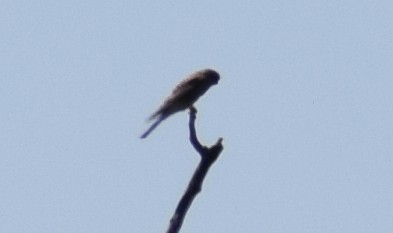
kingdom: Animalia
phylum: Chordata
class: Aves
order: Falconiformes
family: Falconidae
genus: Falco
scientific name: Falco tinnunculus
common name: Common kestrel
